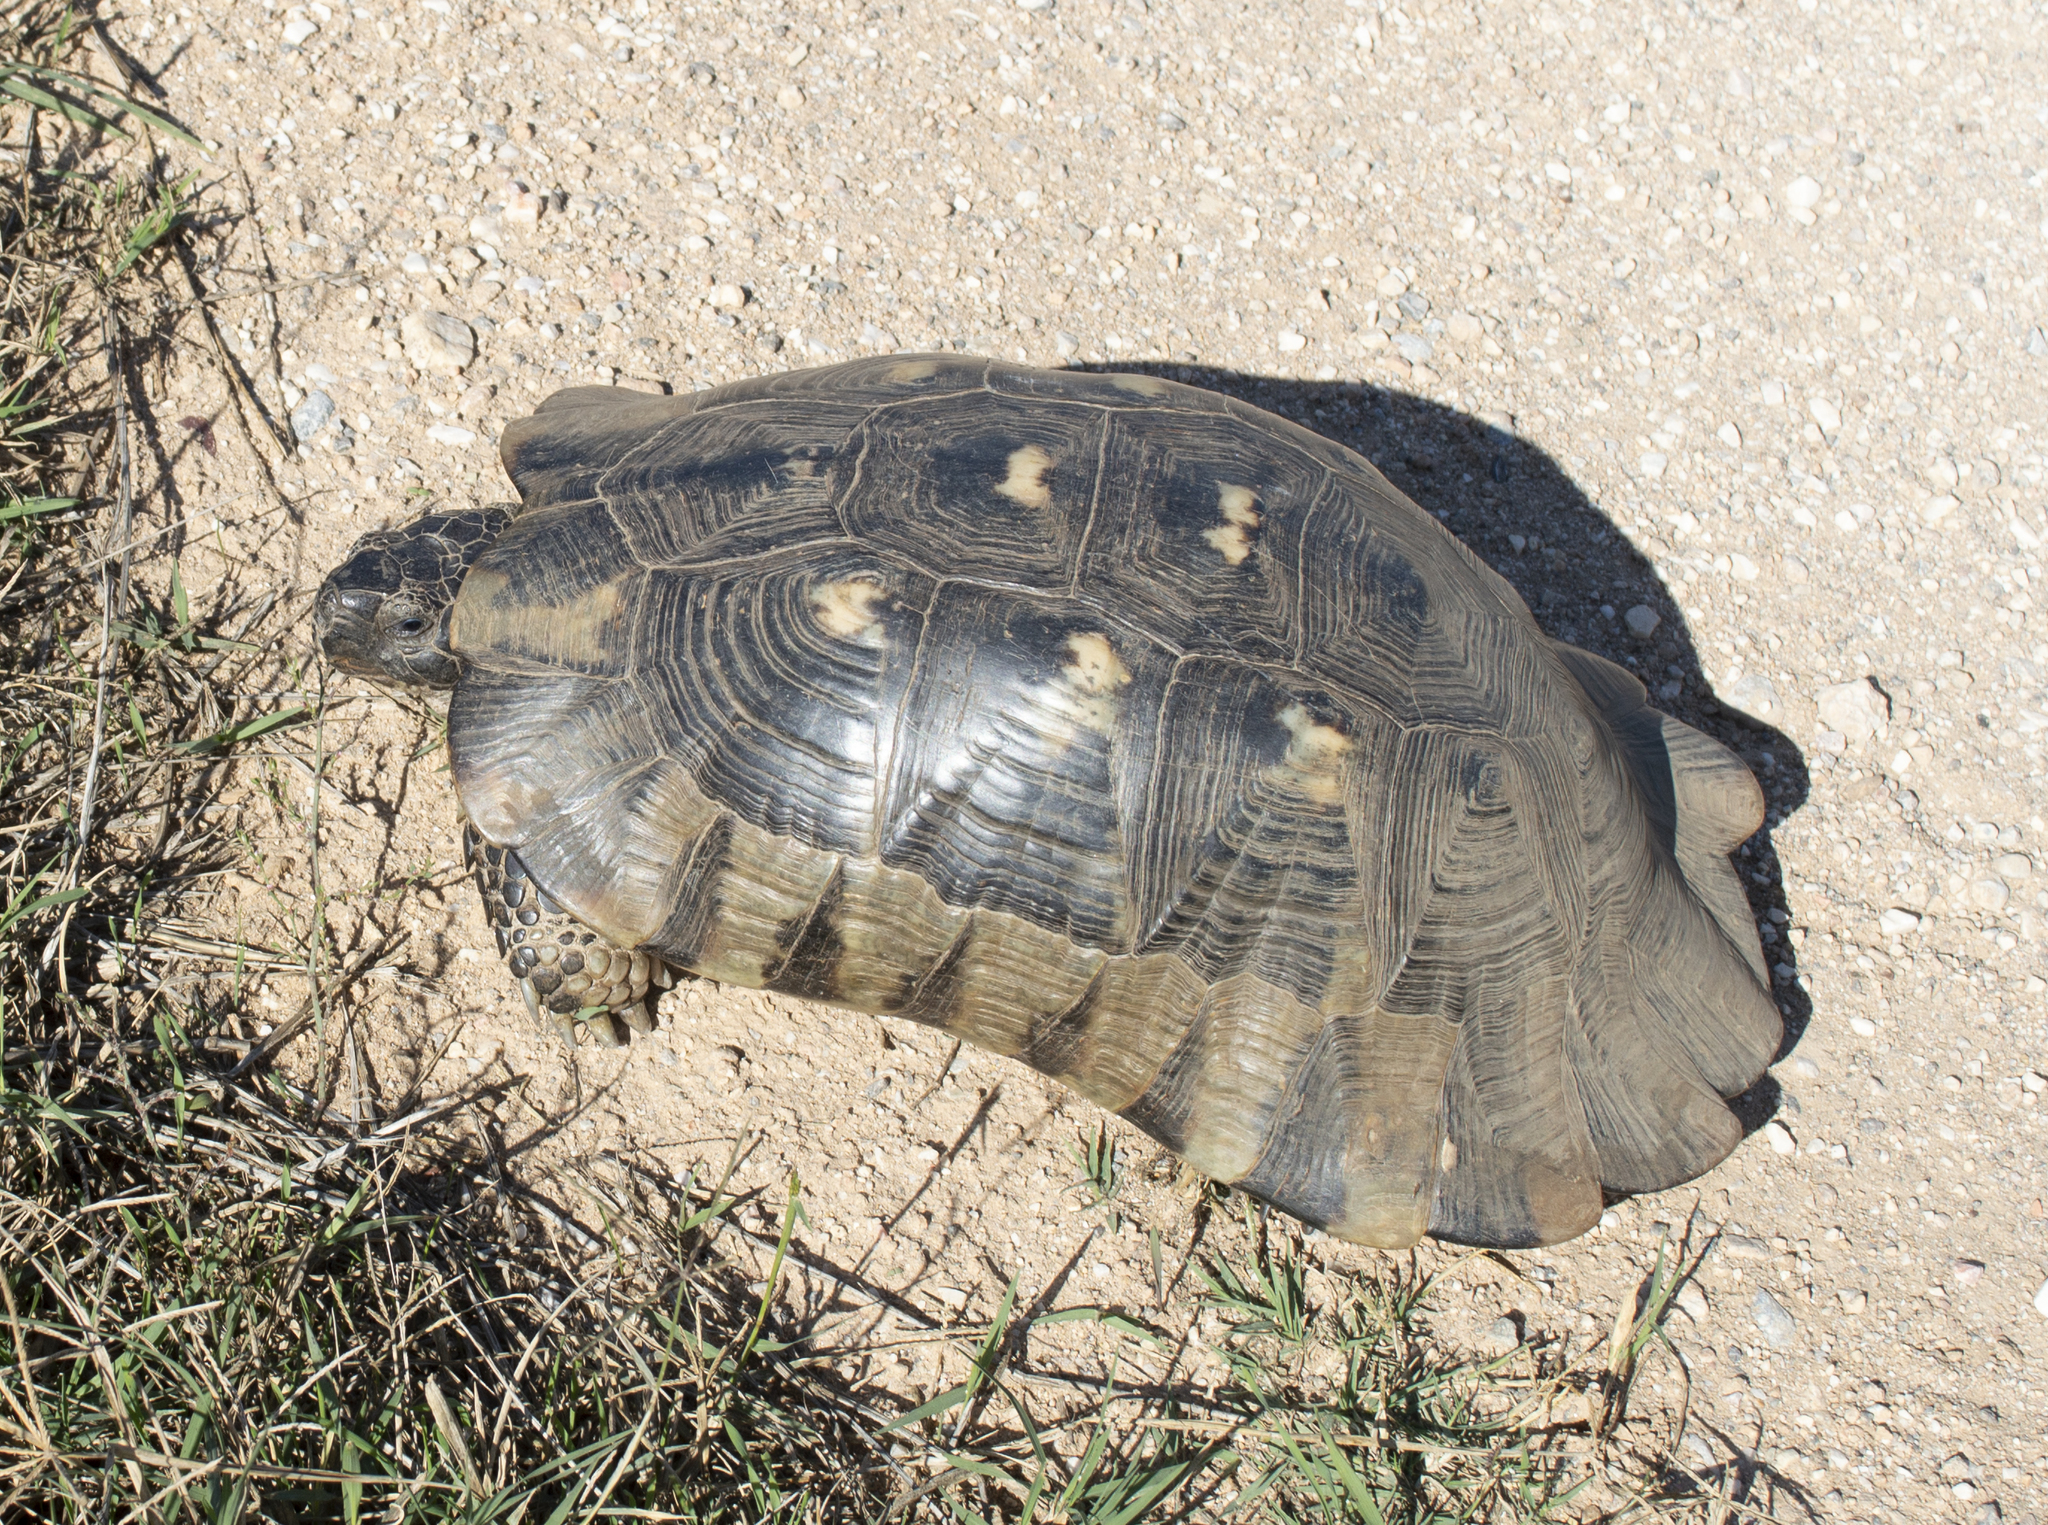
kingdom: Animalia
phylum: Chordata
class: Testudines
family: Testudinidae
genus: Testudo
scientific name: Testudo marginata
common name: Marginated tortoise
